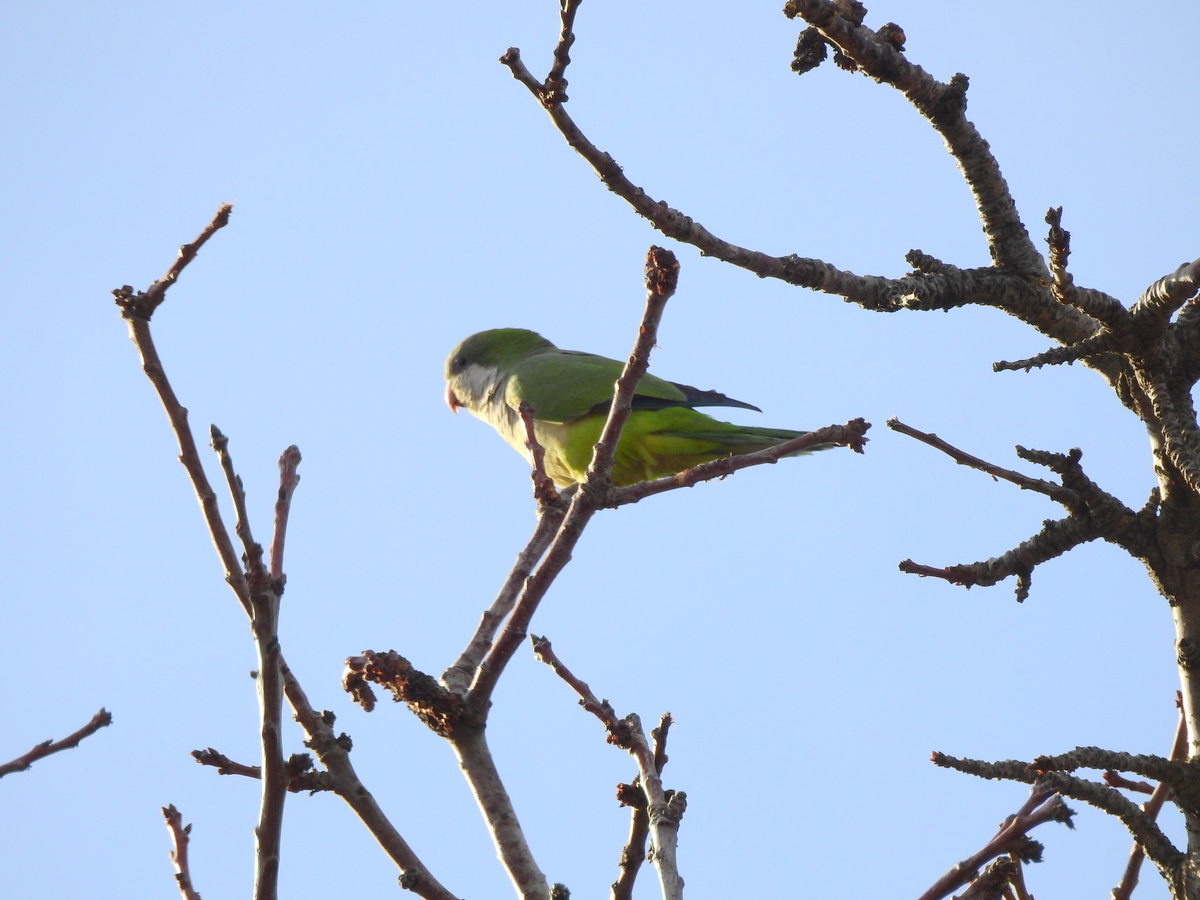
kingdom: Animalia
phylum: Chordata
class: Aves
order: Psittaciformes
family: Psittacidae
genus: Myiopsitta
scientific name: Myiopsitta monachus
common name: Monk parakeet
